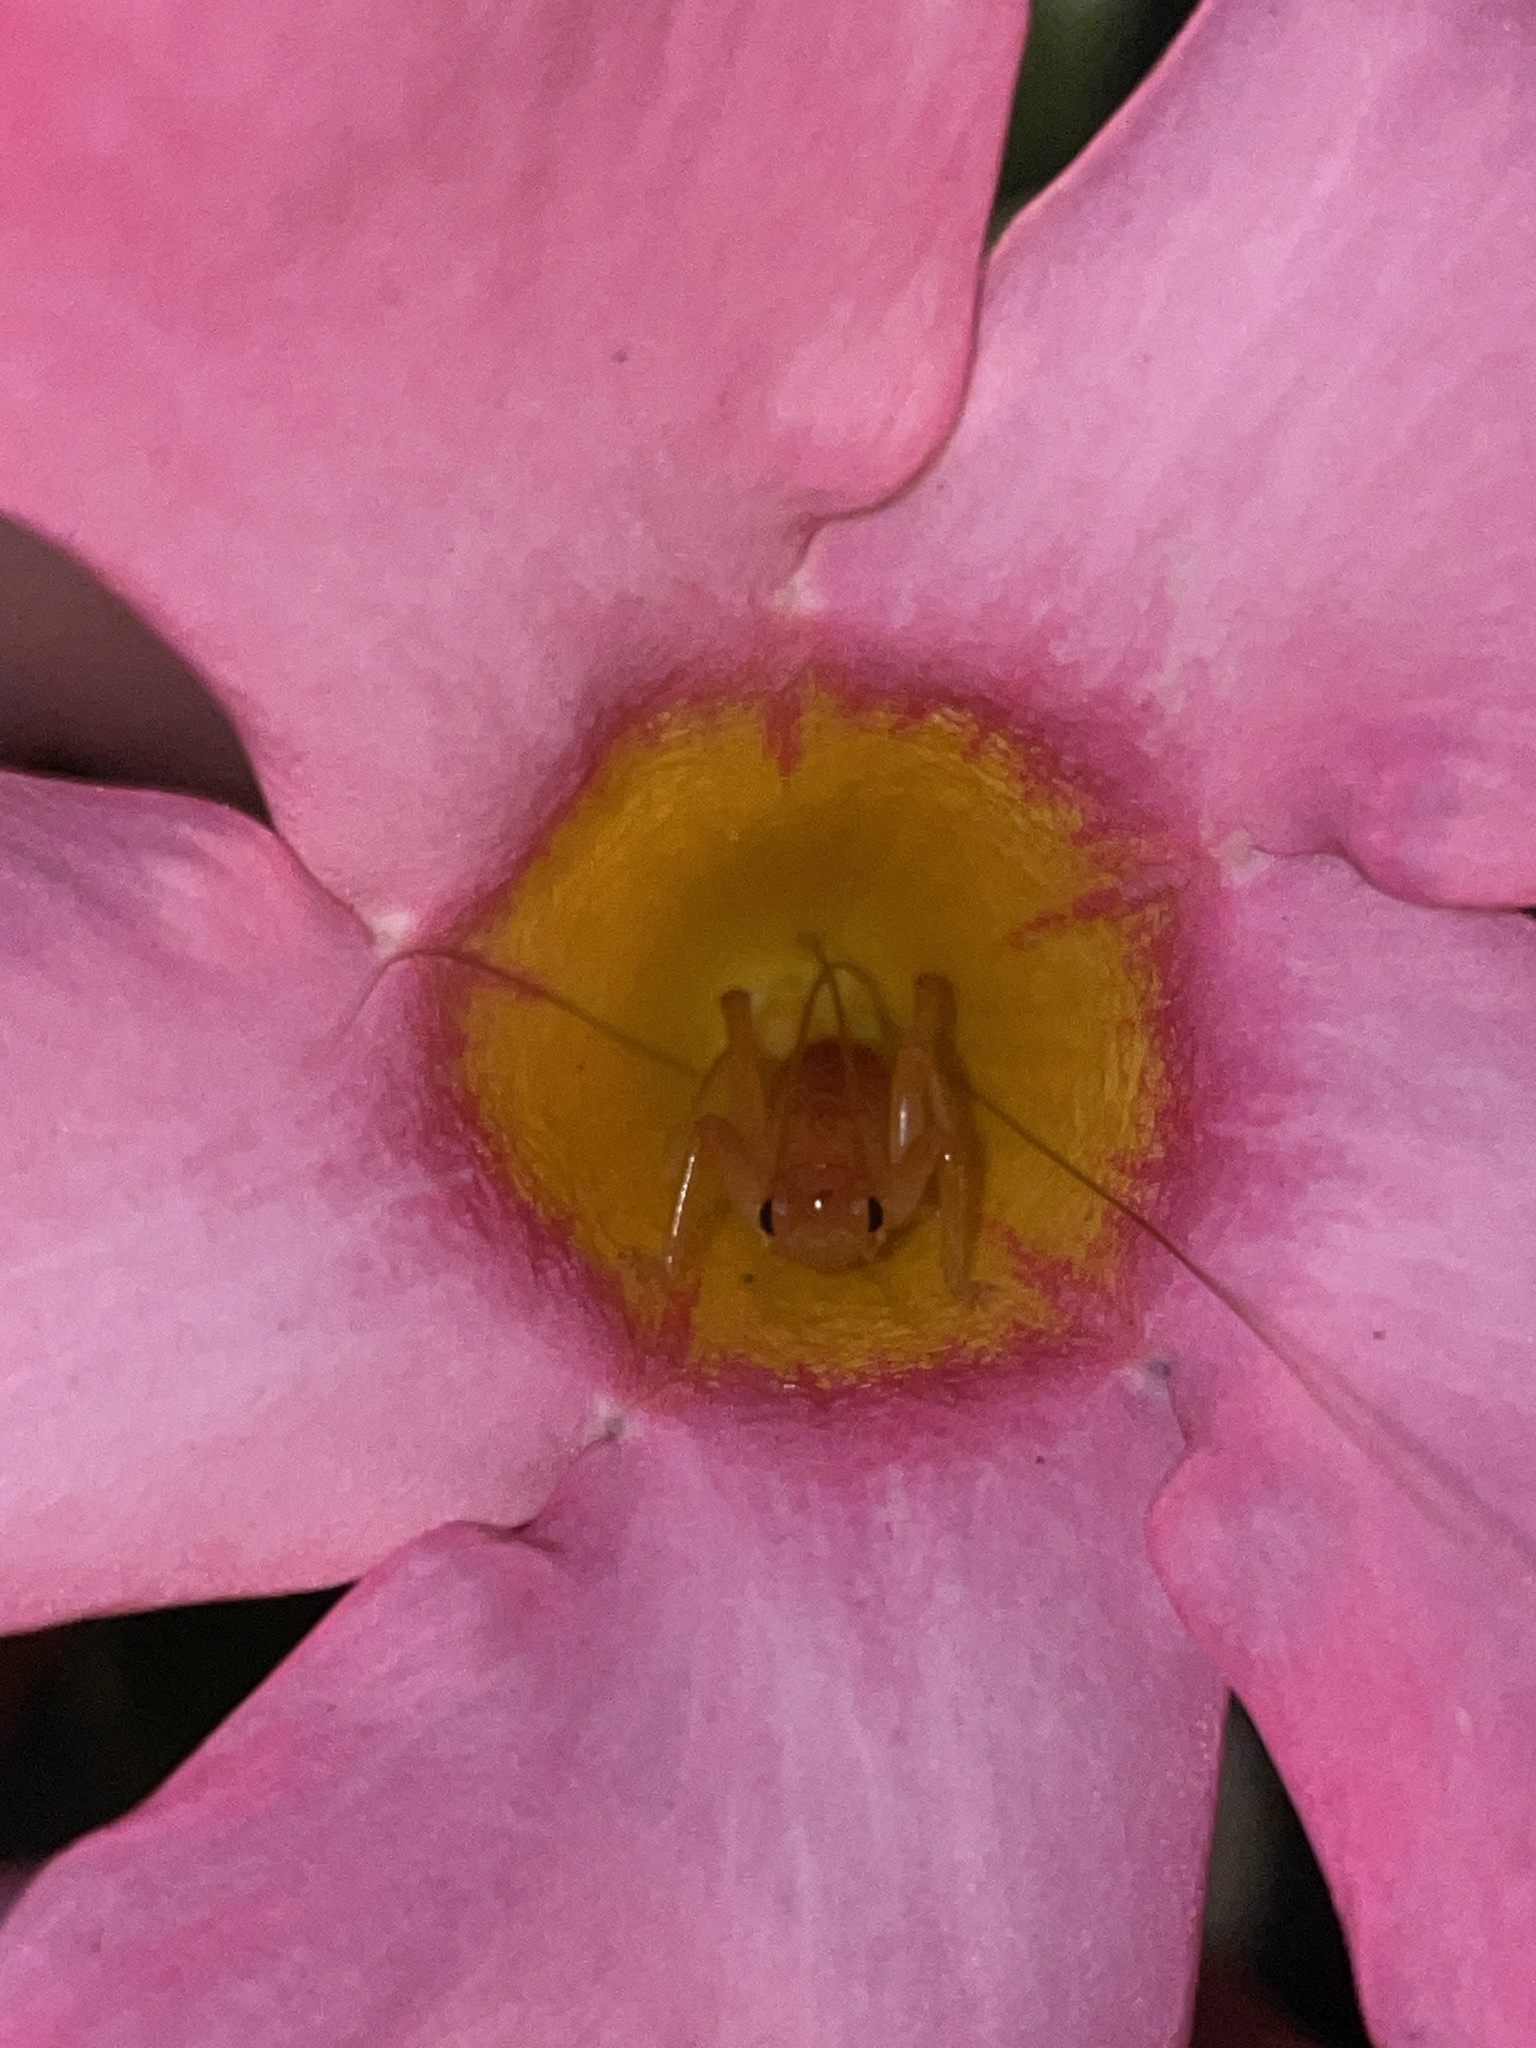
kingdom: Animalia
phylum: Arthropoda
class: Insecta
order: Orthoptera
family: Gryllacrididae
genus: Camptonotus
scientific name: Camptonotus carolinensis
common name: Carolina leaf-roller
